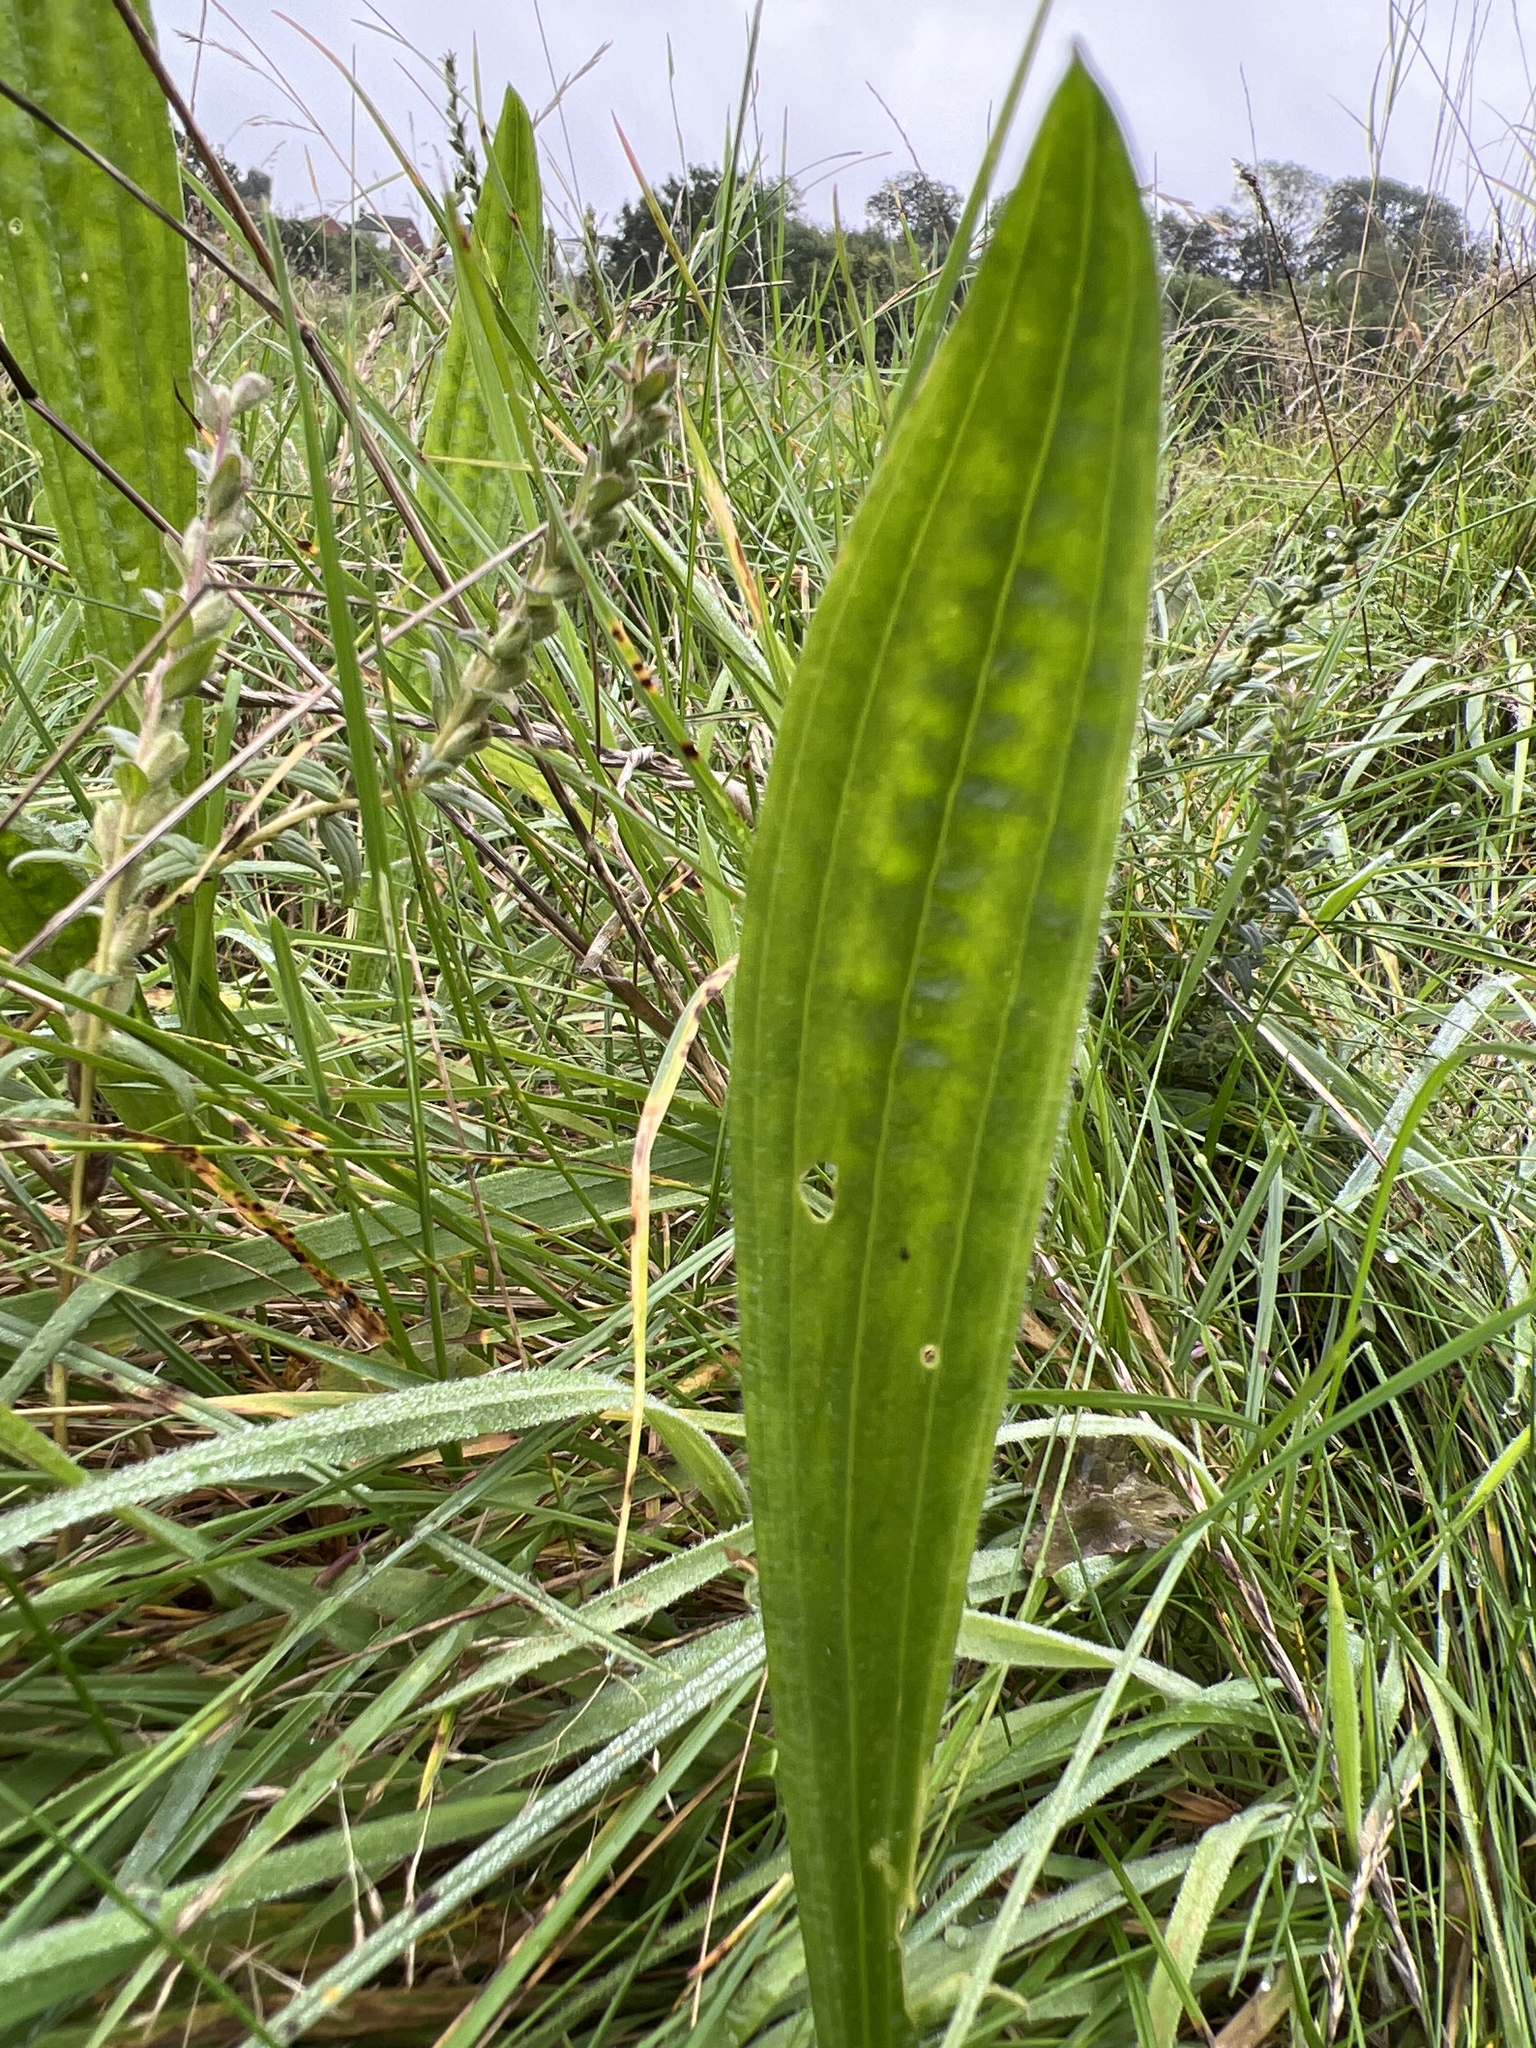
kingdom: Plantae
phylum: Tracheophyta
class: Magnoliopsida
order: Lamiales
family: Plantaginaceae
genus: Plantago
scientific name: Plantago lanceolata
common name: Ribwort plantain
